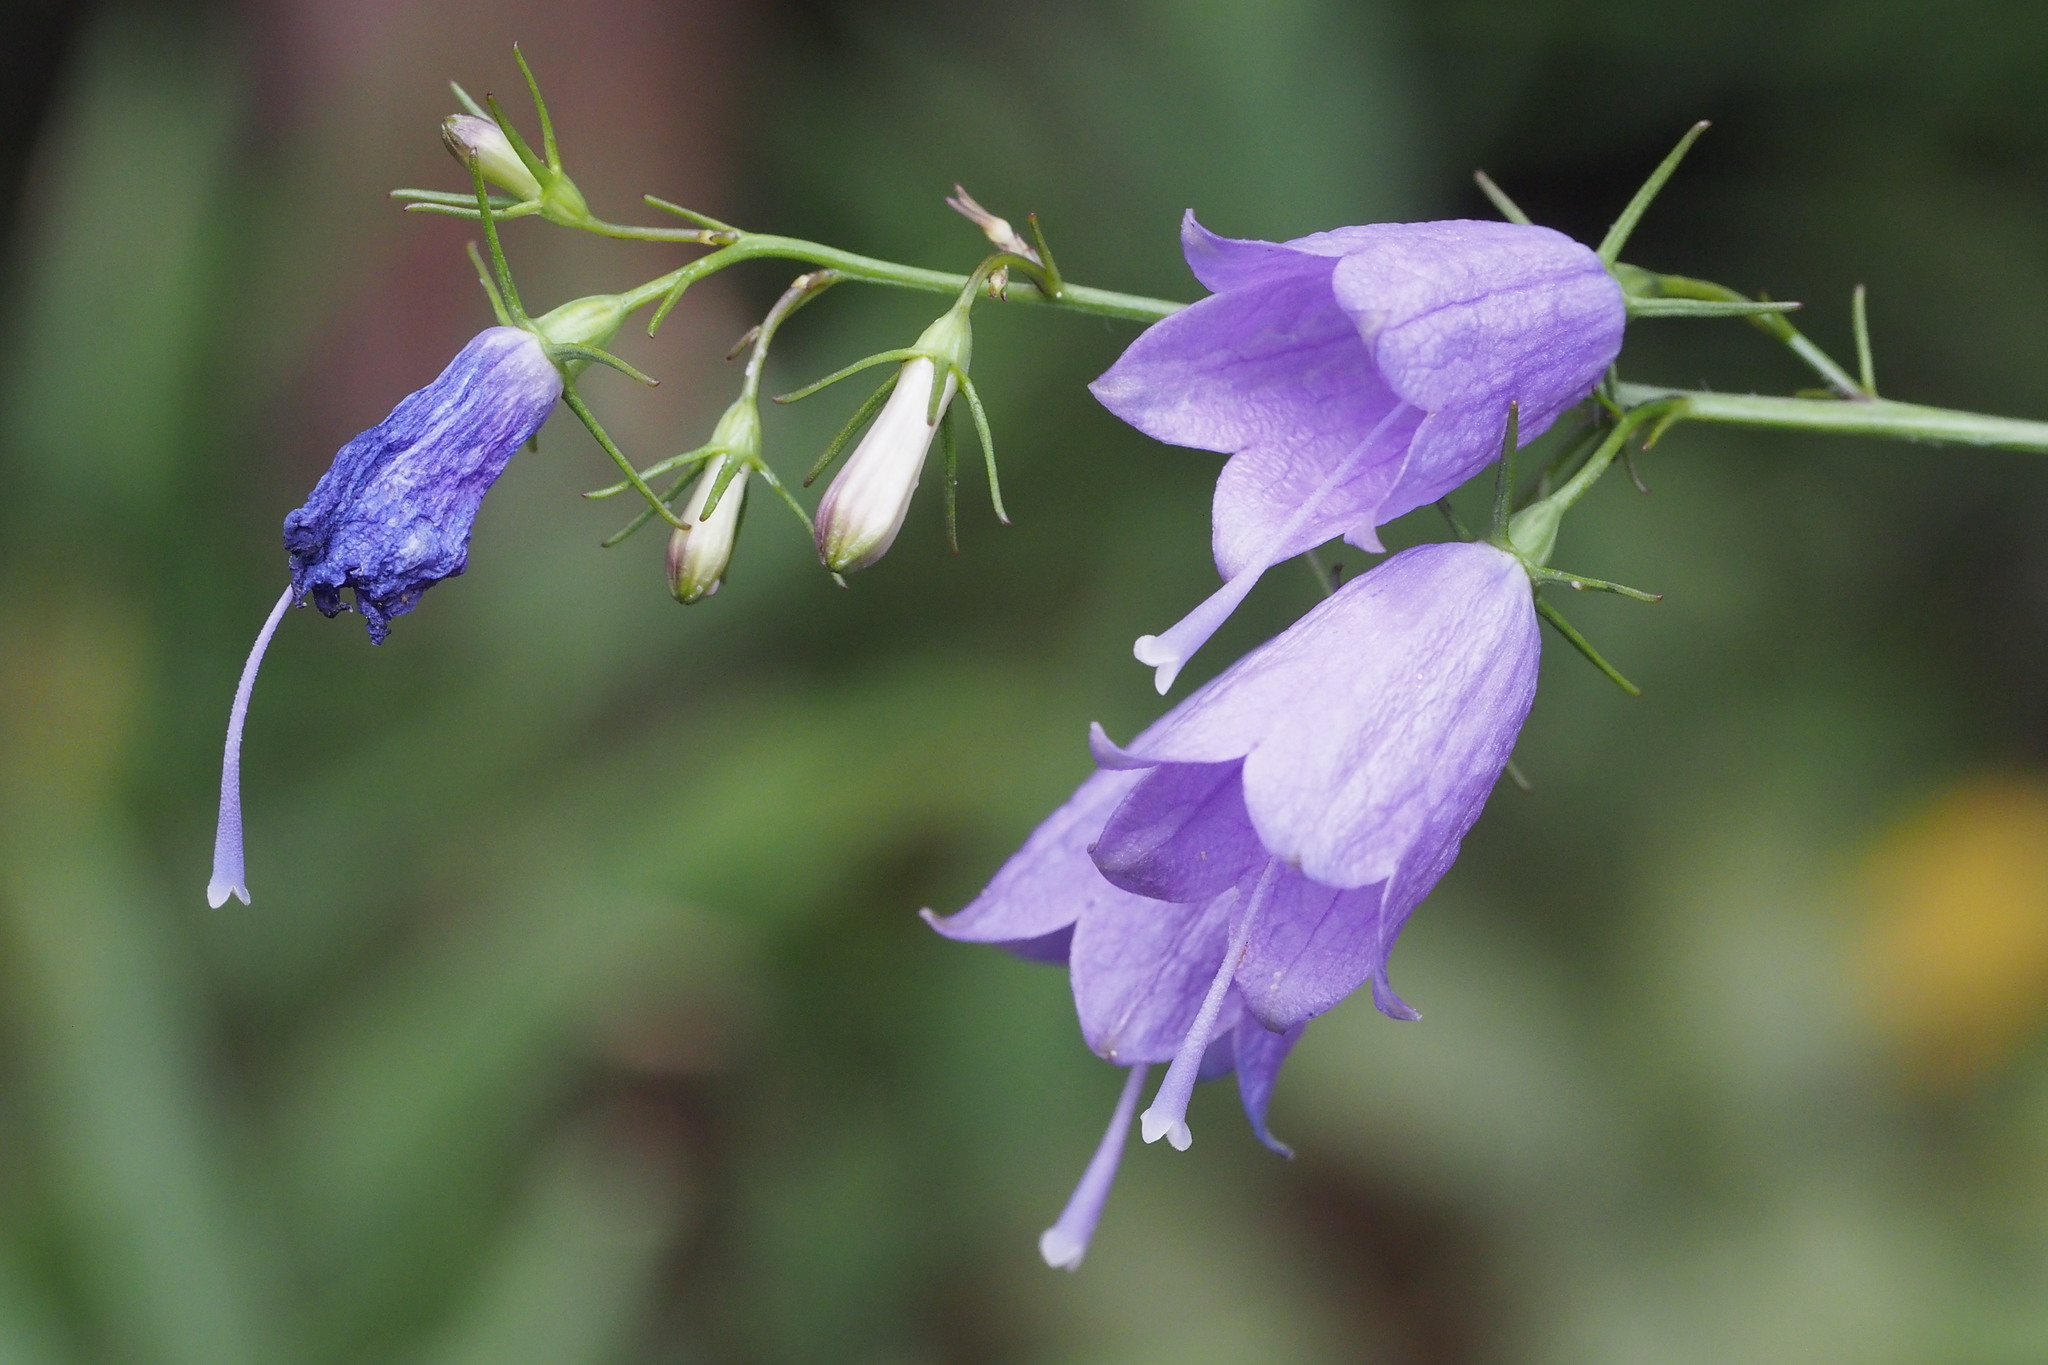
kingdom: Plantae
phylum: Tracheophyta
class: Magnoliopsida
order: Asterales
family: Campanulaceae
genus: Adenophora
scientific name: Adenophora triphylla
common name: Giant-bellflower
